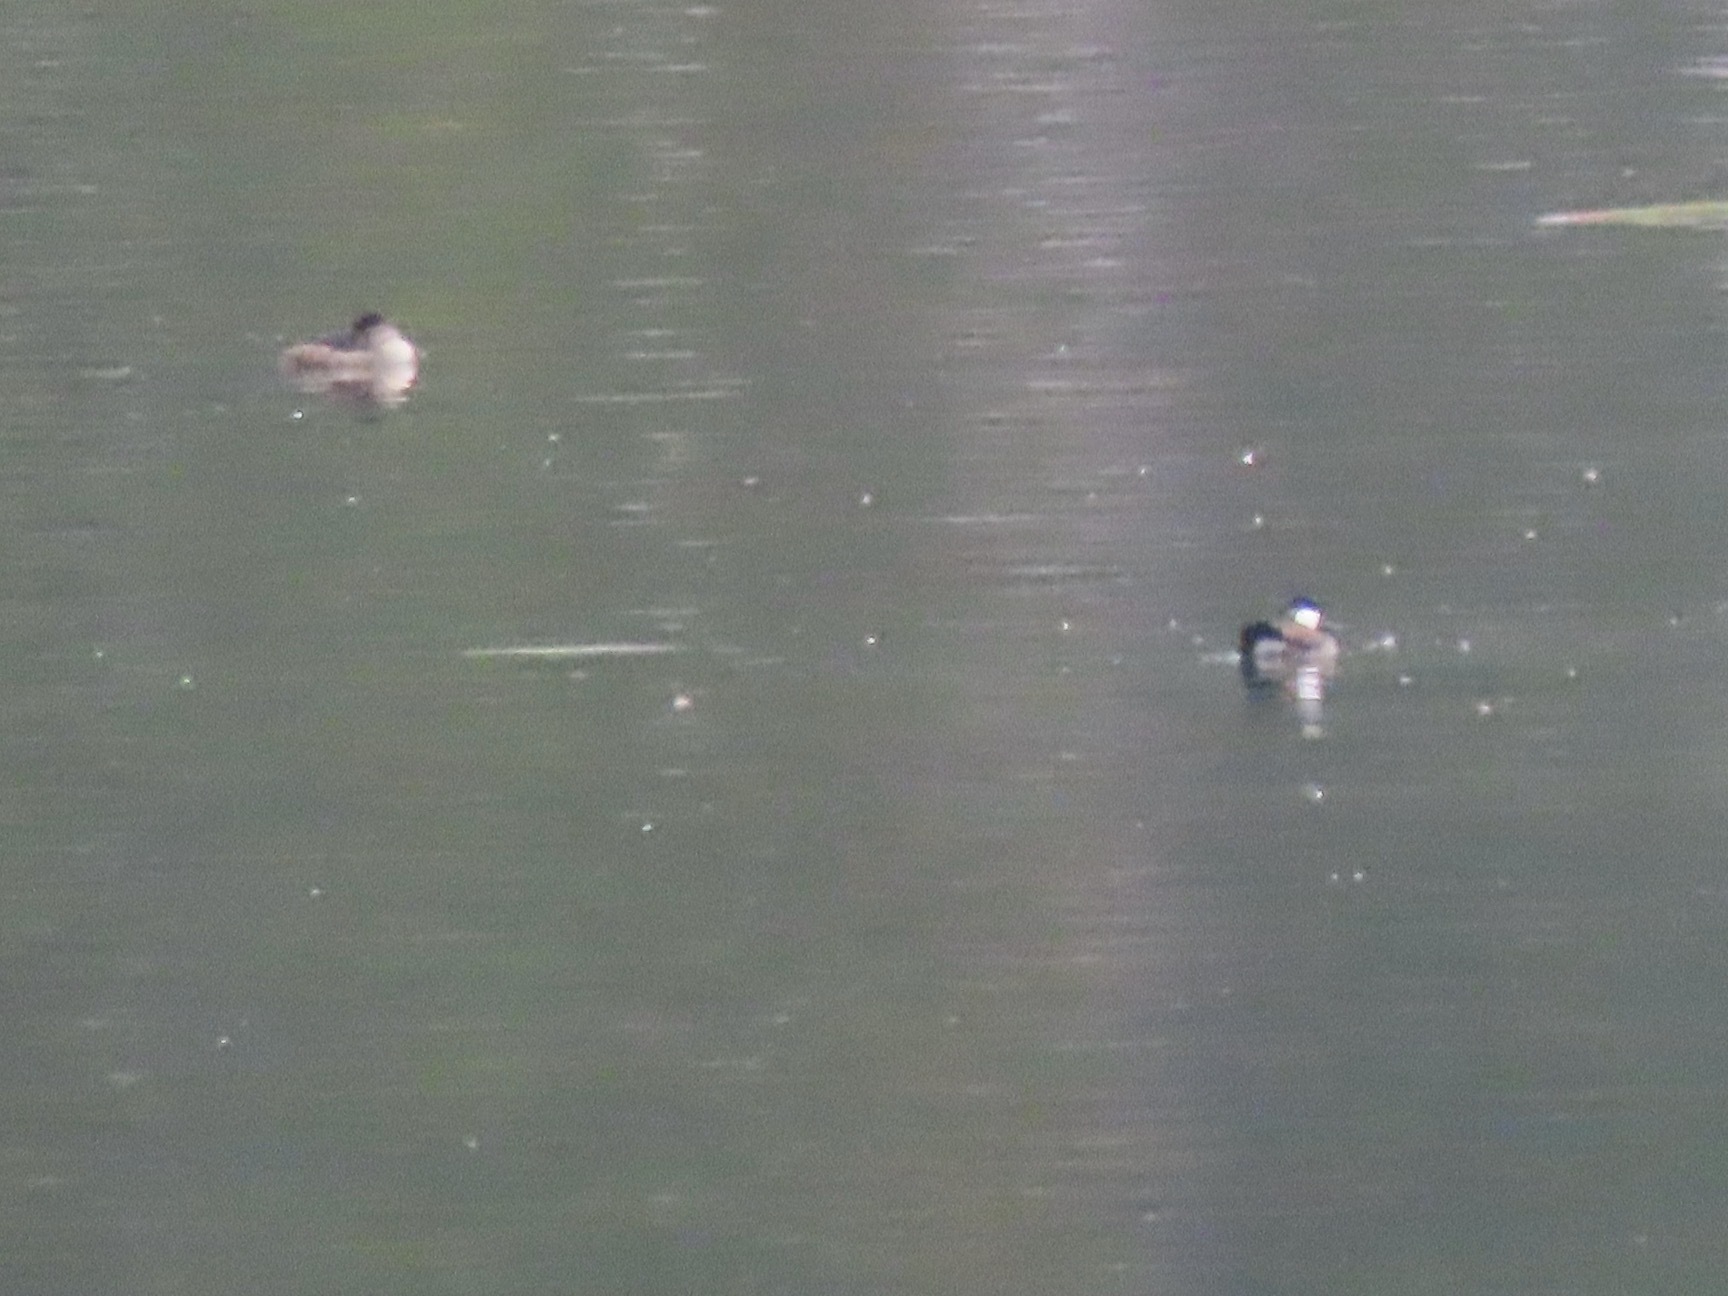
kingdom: Animalia
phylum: Chordata
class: Aves
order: Anseriformes
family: Anatidae
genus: Oxyura
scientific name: Oxyura jamaicensis
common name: Ruddy duck
